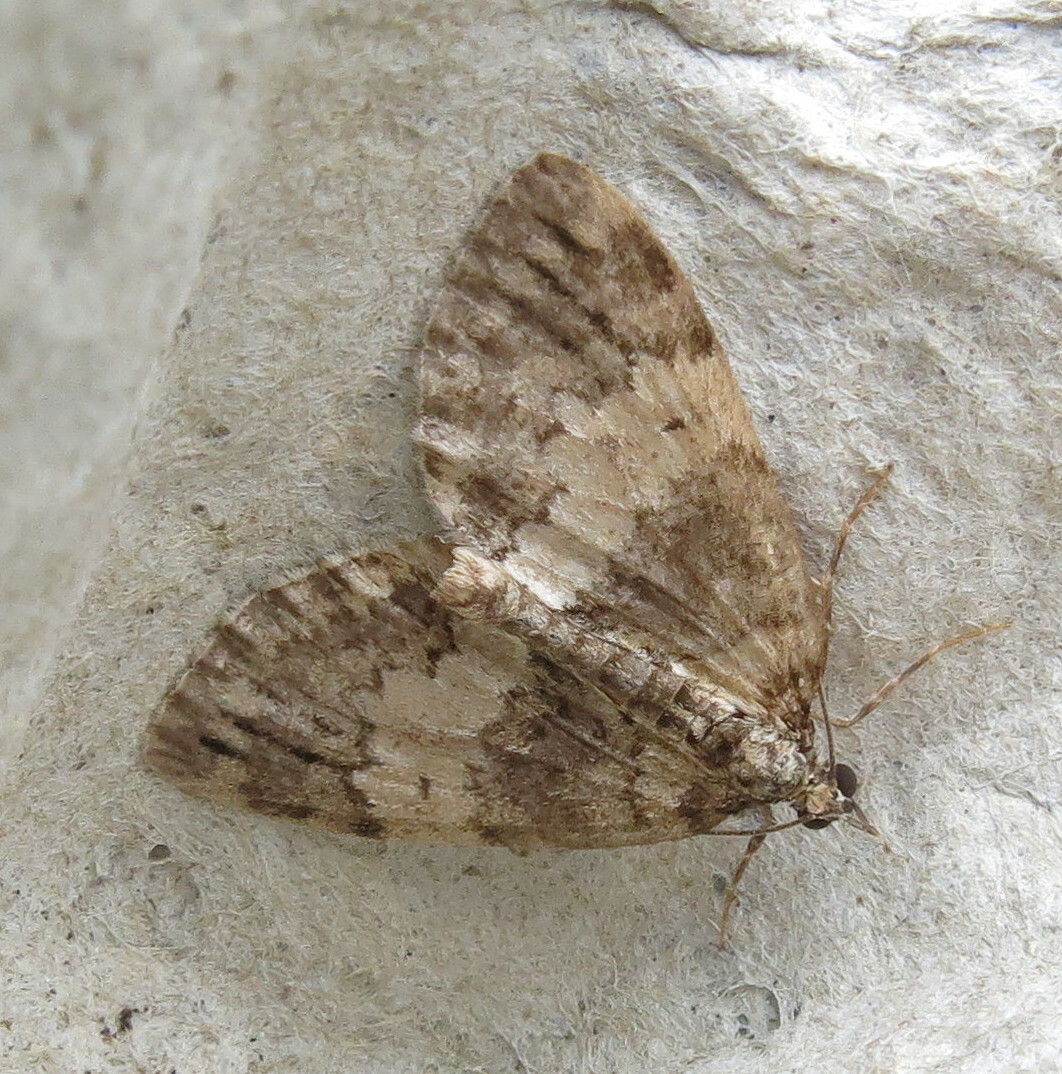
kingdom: Animalia
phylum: Arthropoda
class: Insecta
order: Lepidoptera
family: Geometridae
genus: Hydriomena
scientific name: Hydriomena impluviata
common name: May highflyer
